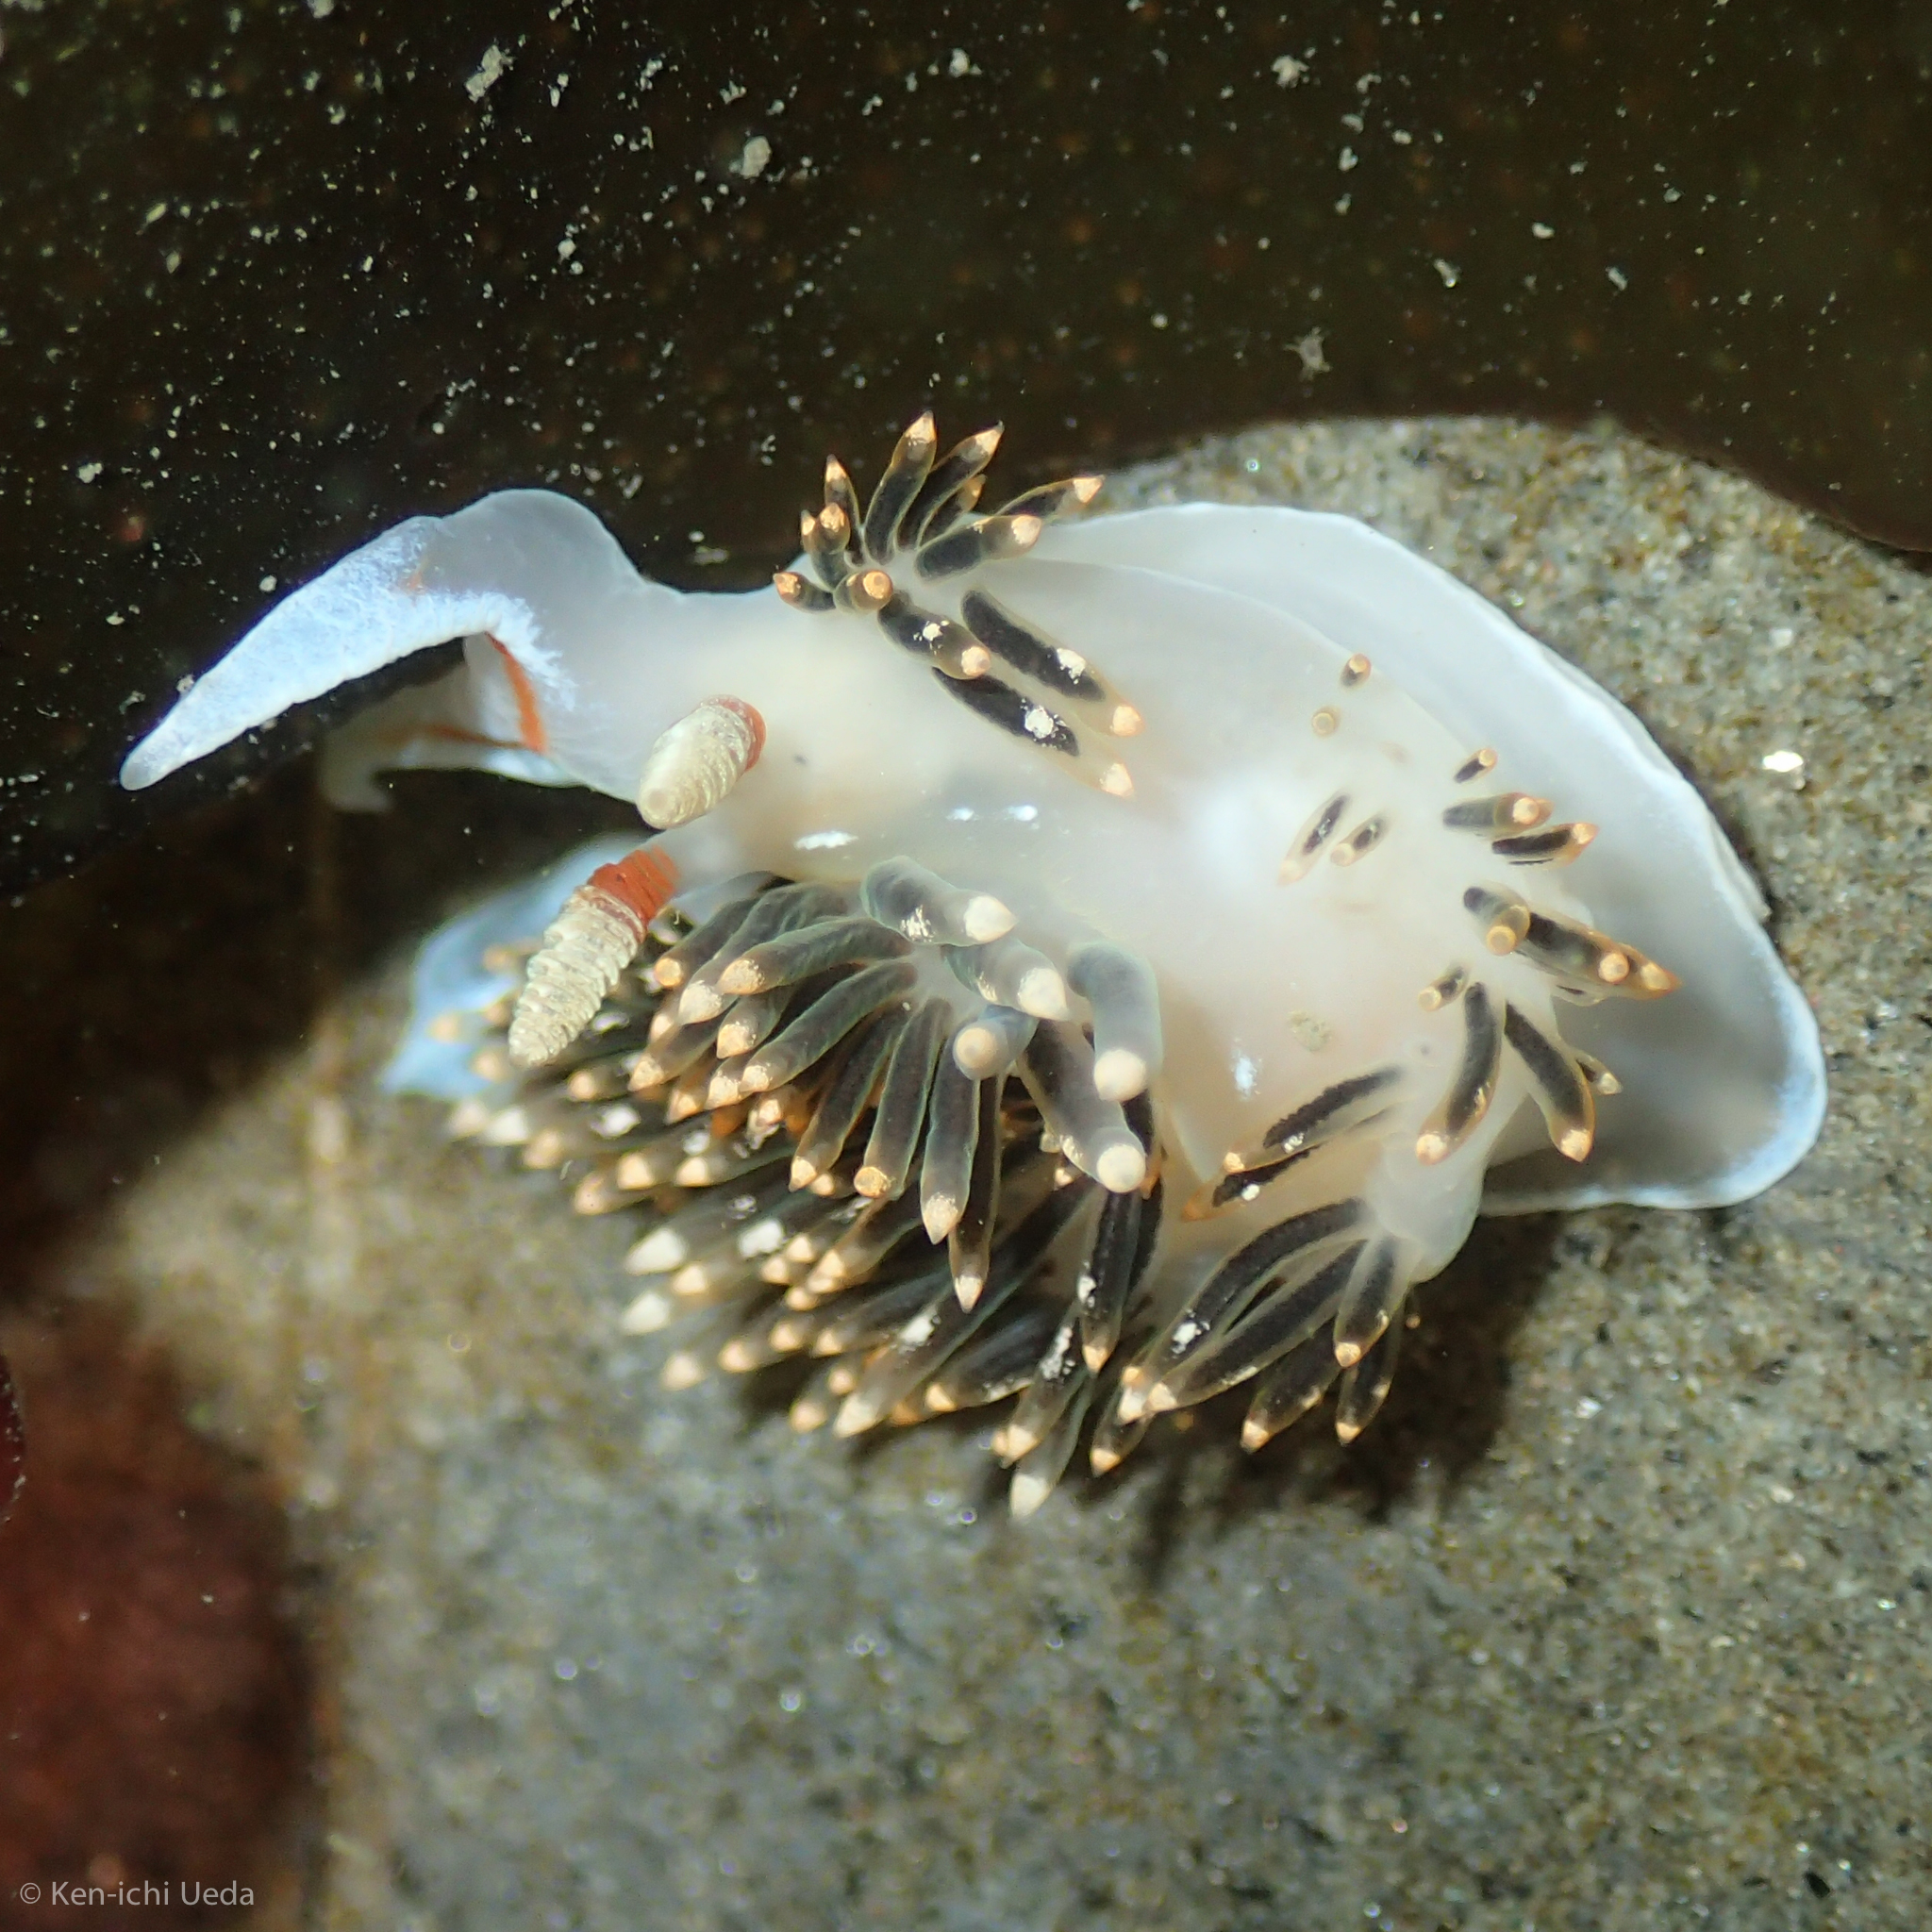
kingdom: Animalia
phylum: Mollusca
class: Gastropoda
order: Nudibranchia
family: Facelinidae
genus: Phidiana
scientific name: Phidiana hiltoni
